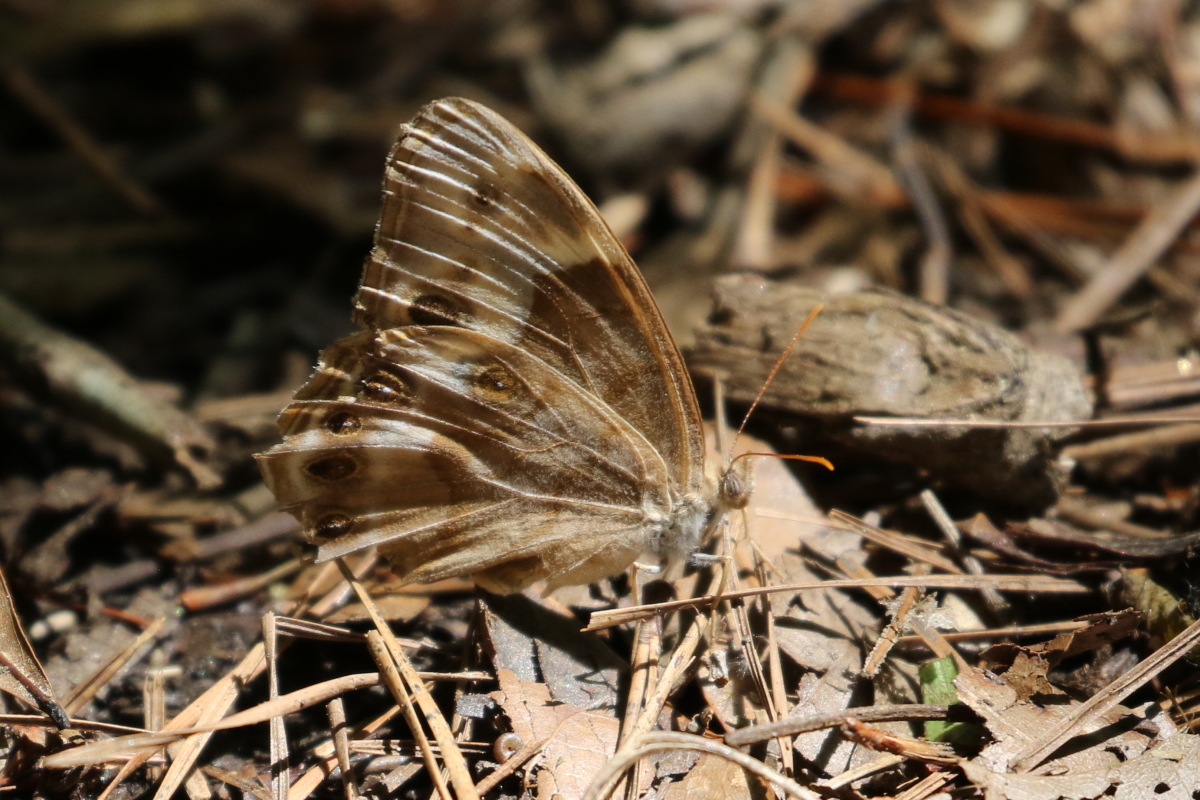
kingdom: Animalia
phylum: Arthropoda
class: Insecta
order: Lepidoptera
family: Nymphalidae
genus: Enodia
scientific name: Enodia portlandia
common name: Southern pearly-eye
